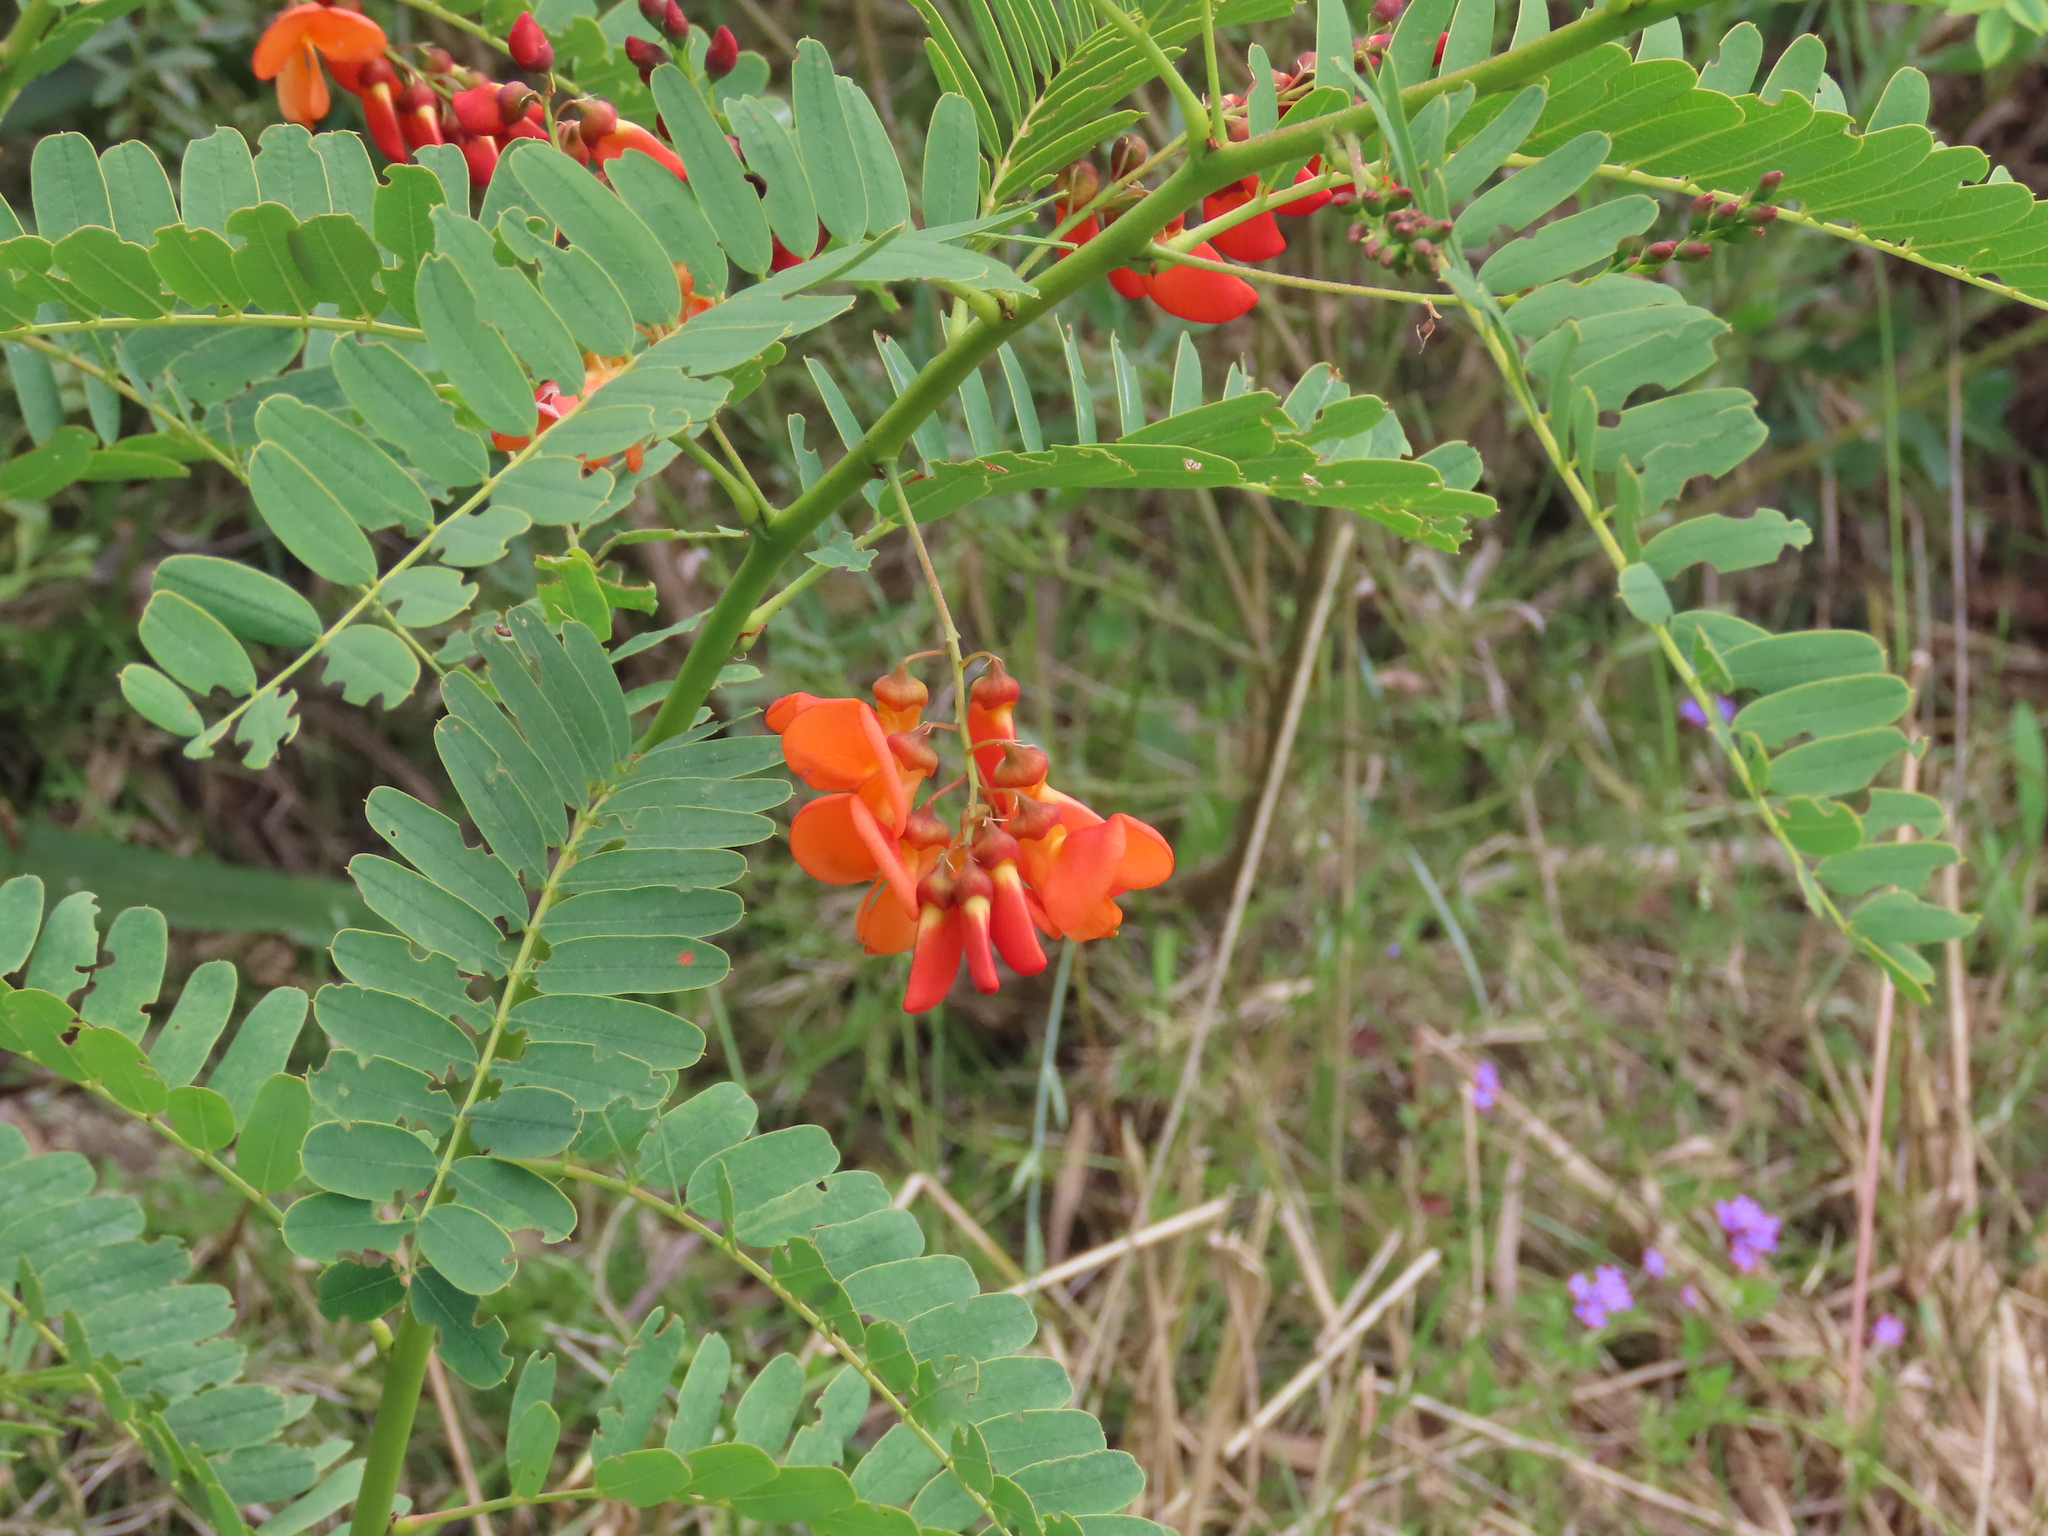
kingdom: Plantae
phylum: Tracheophyta
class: Magnoliopsida
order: Fabales
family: Fabaceae
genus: Sesbania
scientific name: Sesbania punicea
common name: Rattlebox
